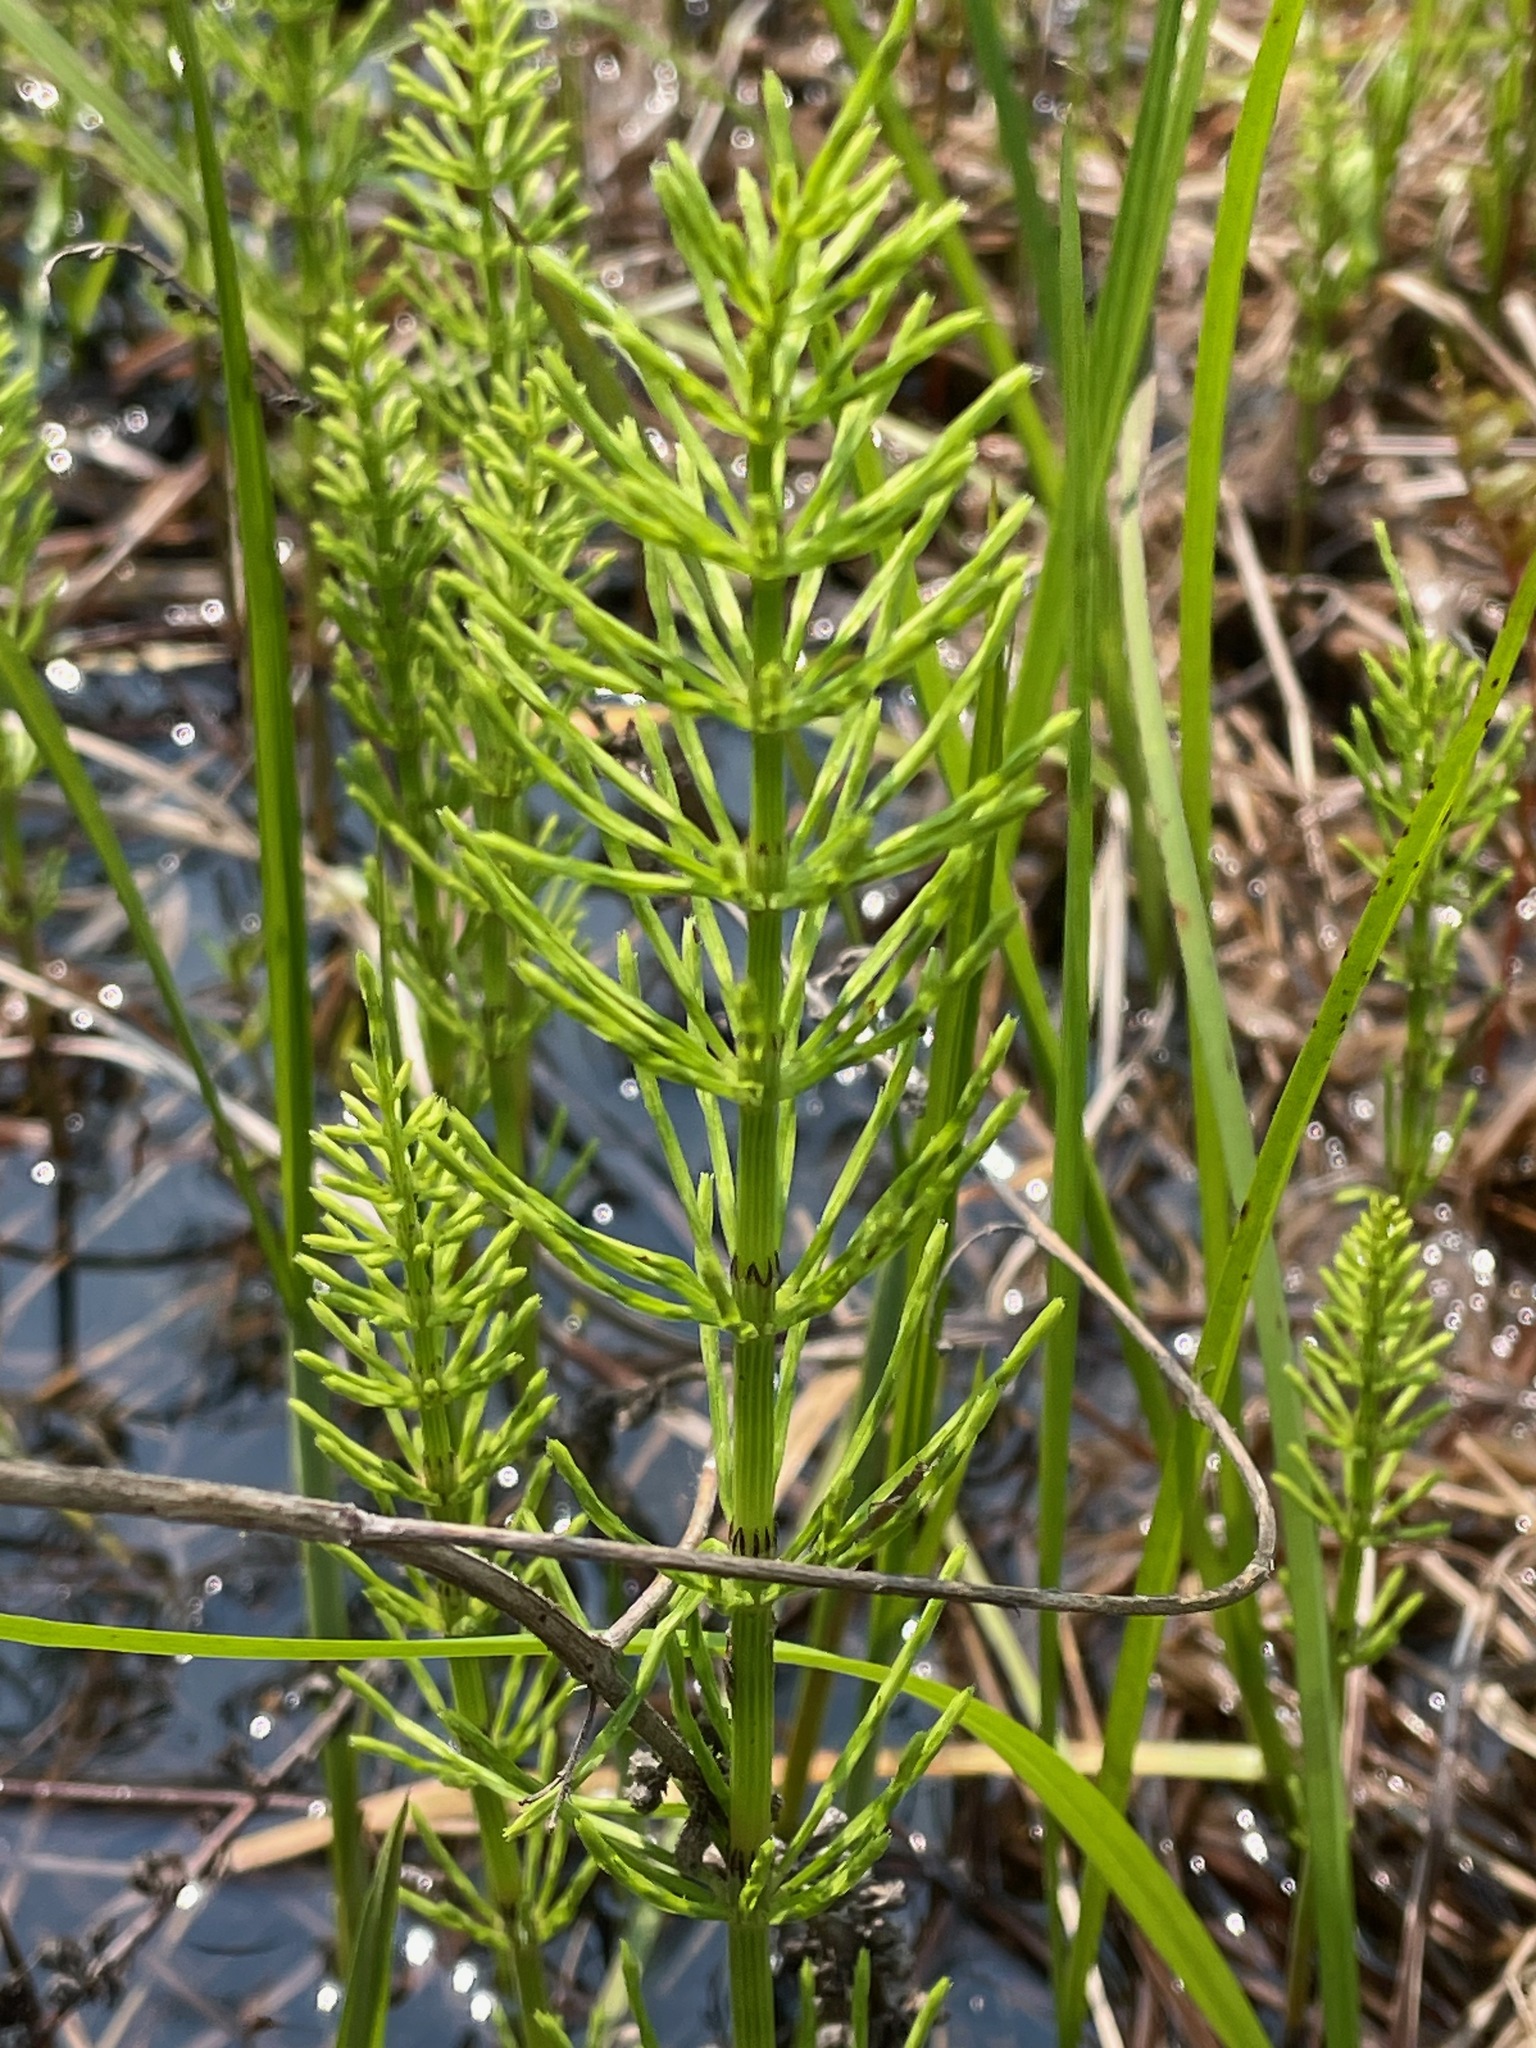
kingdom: Plantae
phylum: Tracheophyta
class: Polypodiopsida
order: Equisetales
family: Equisetaceae
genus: Equisetum
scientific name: Equisetum arvense
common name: Field horsetail
